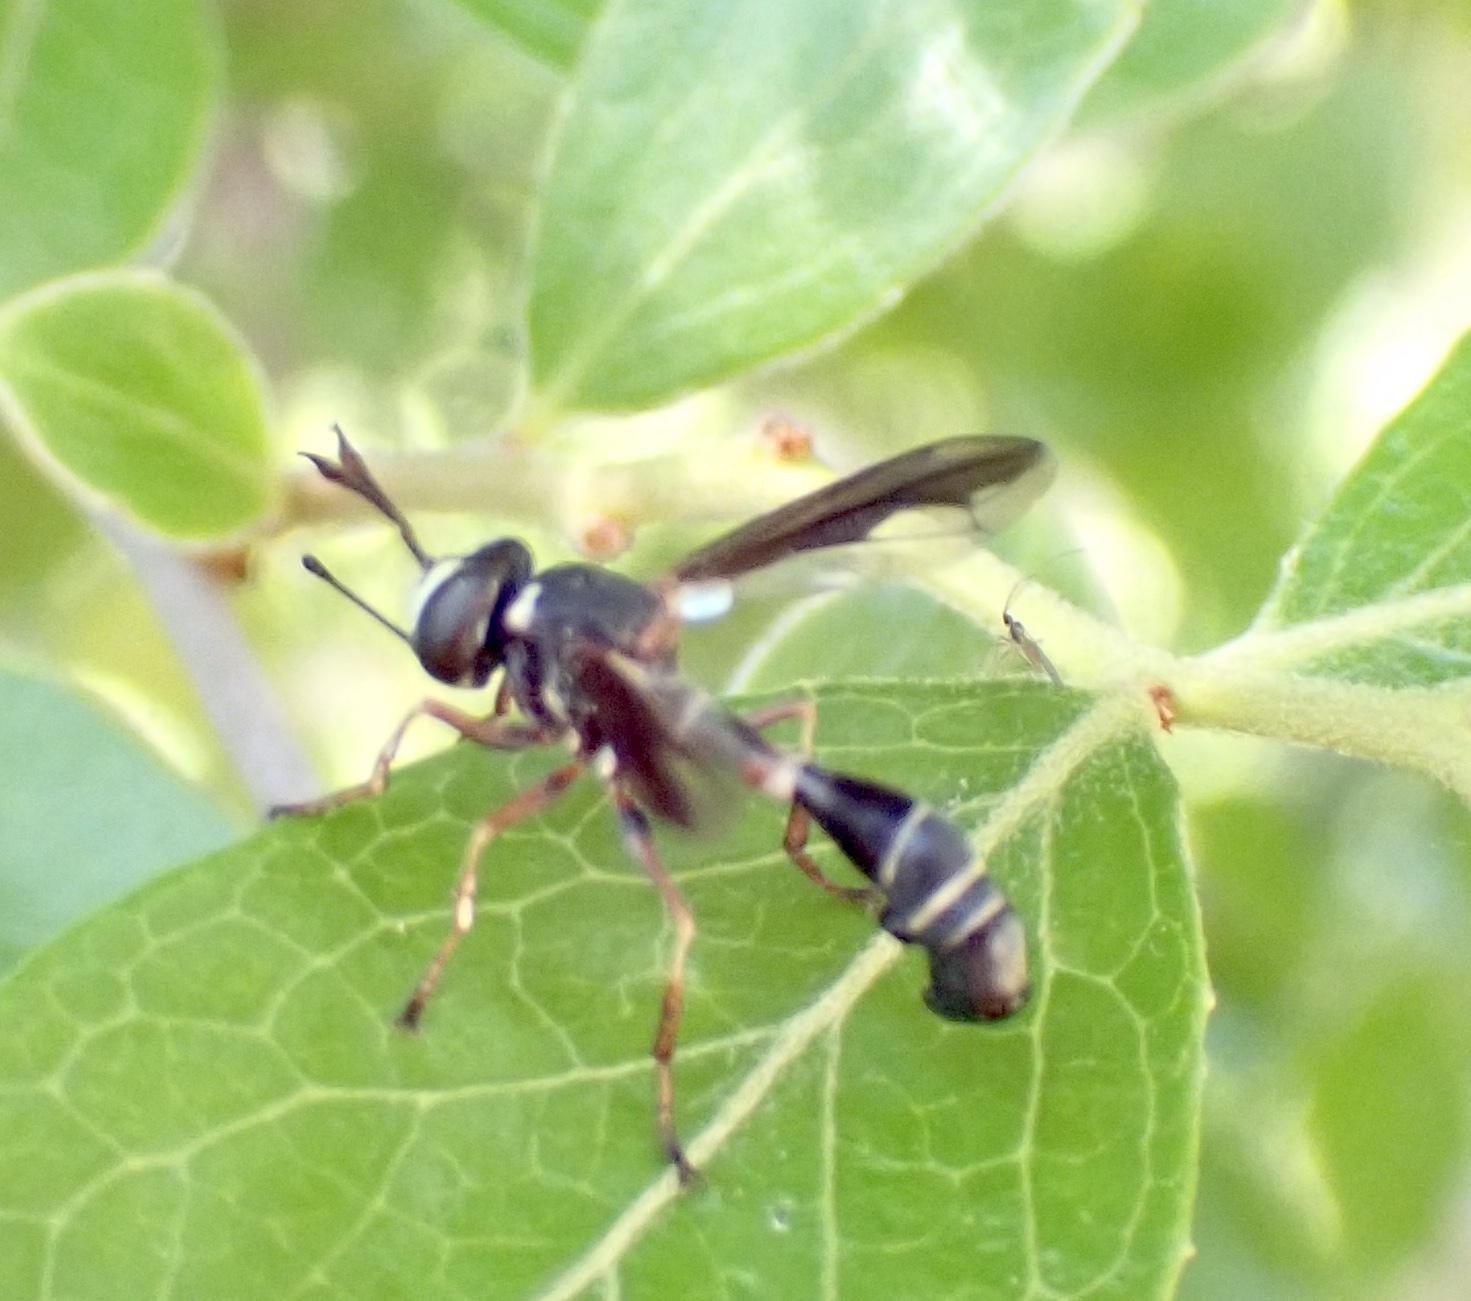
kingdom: Animalia
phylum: Arthropoda
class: Insecta
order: Diptera
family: Conopidae
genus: Physocephala
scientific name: Physocephala marginata
